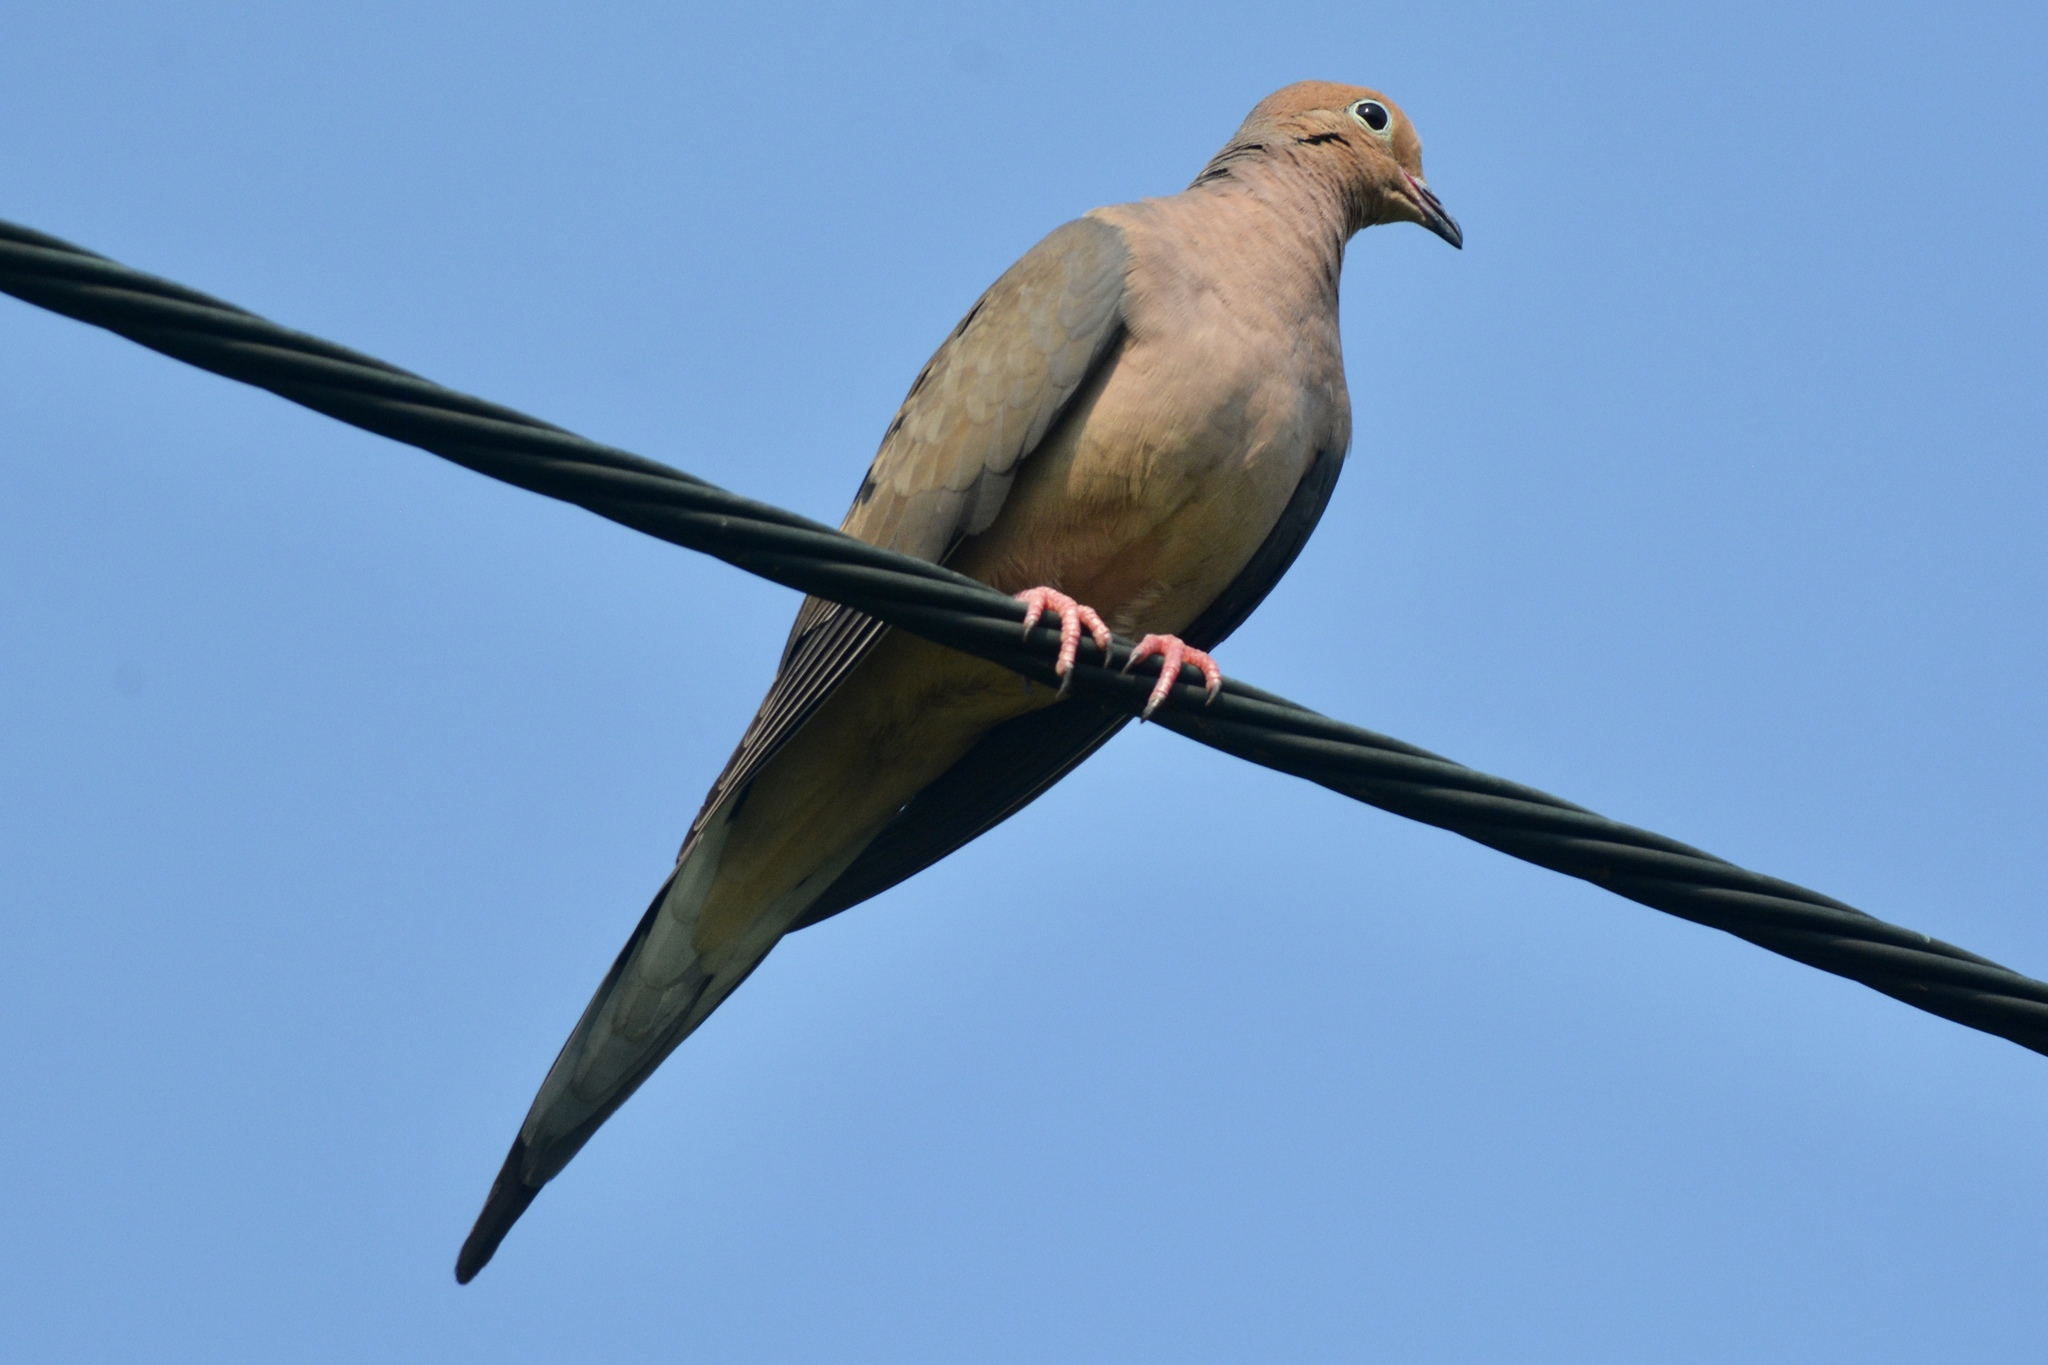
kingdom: Animalia
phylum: Chordata
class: Aves
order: Columbiformes
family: Columbidae
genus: Zenaida
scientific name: Zenaida macroura
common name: Mourning dove
